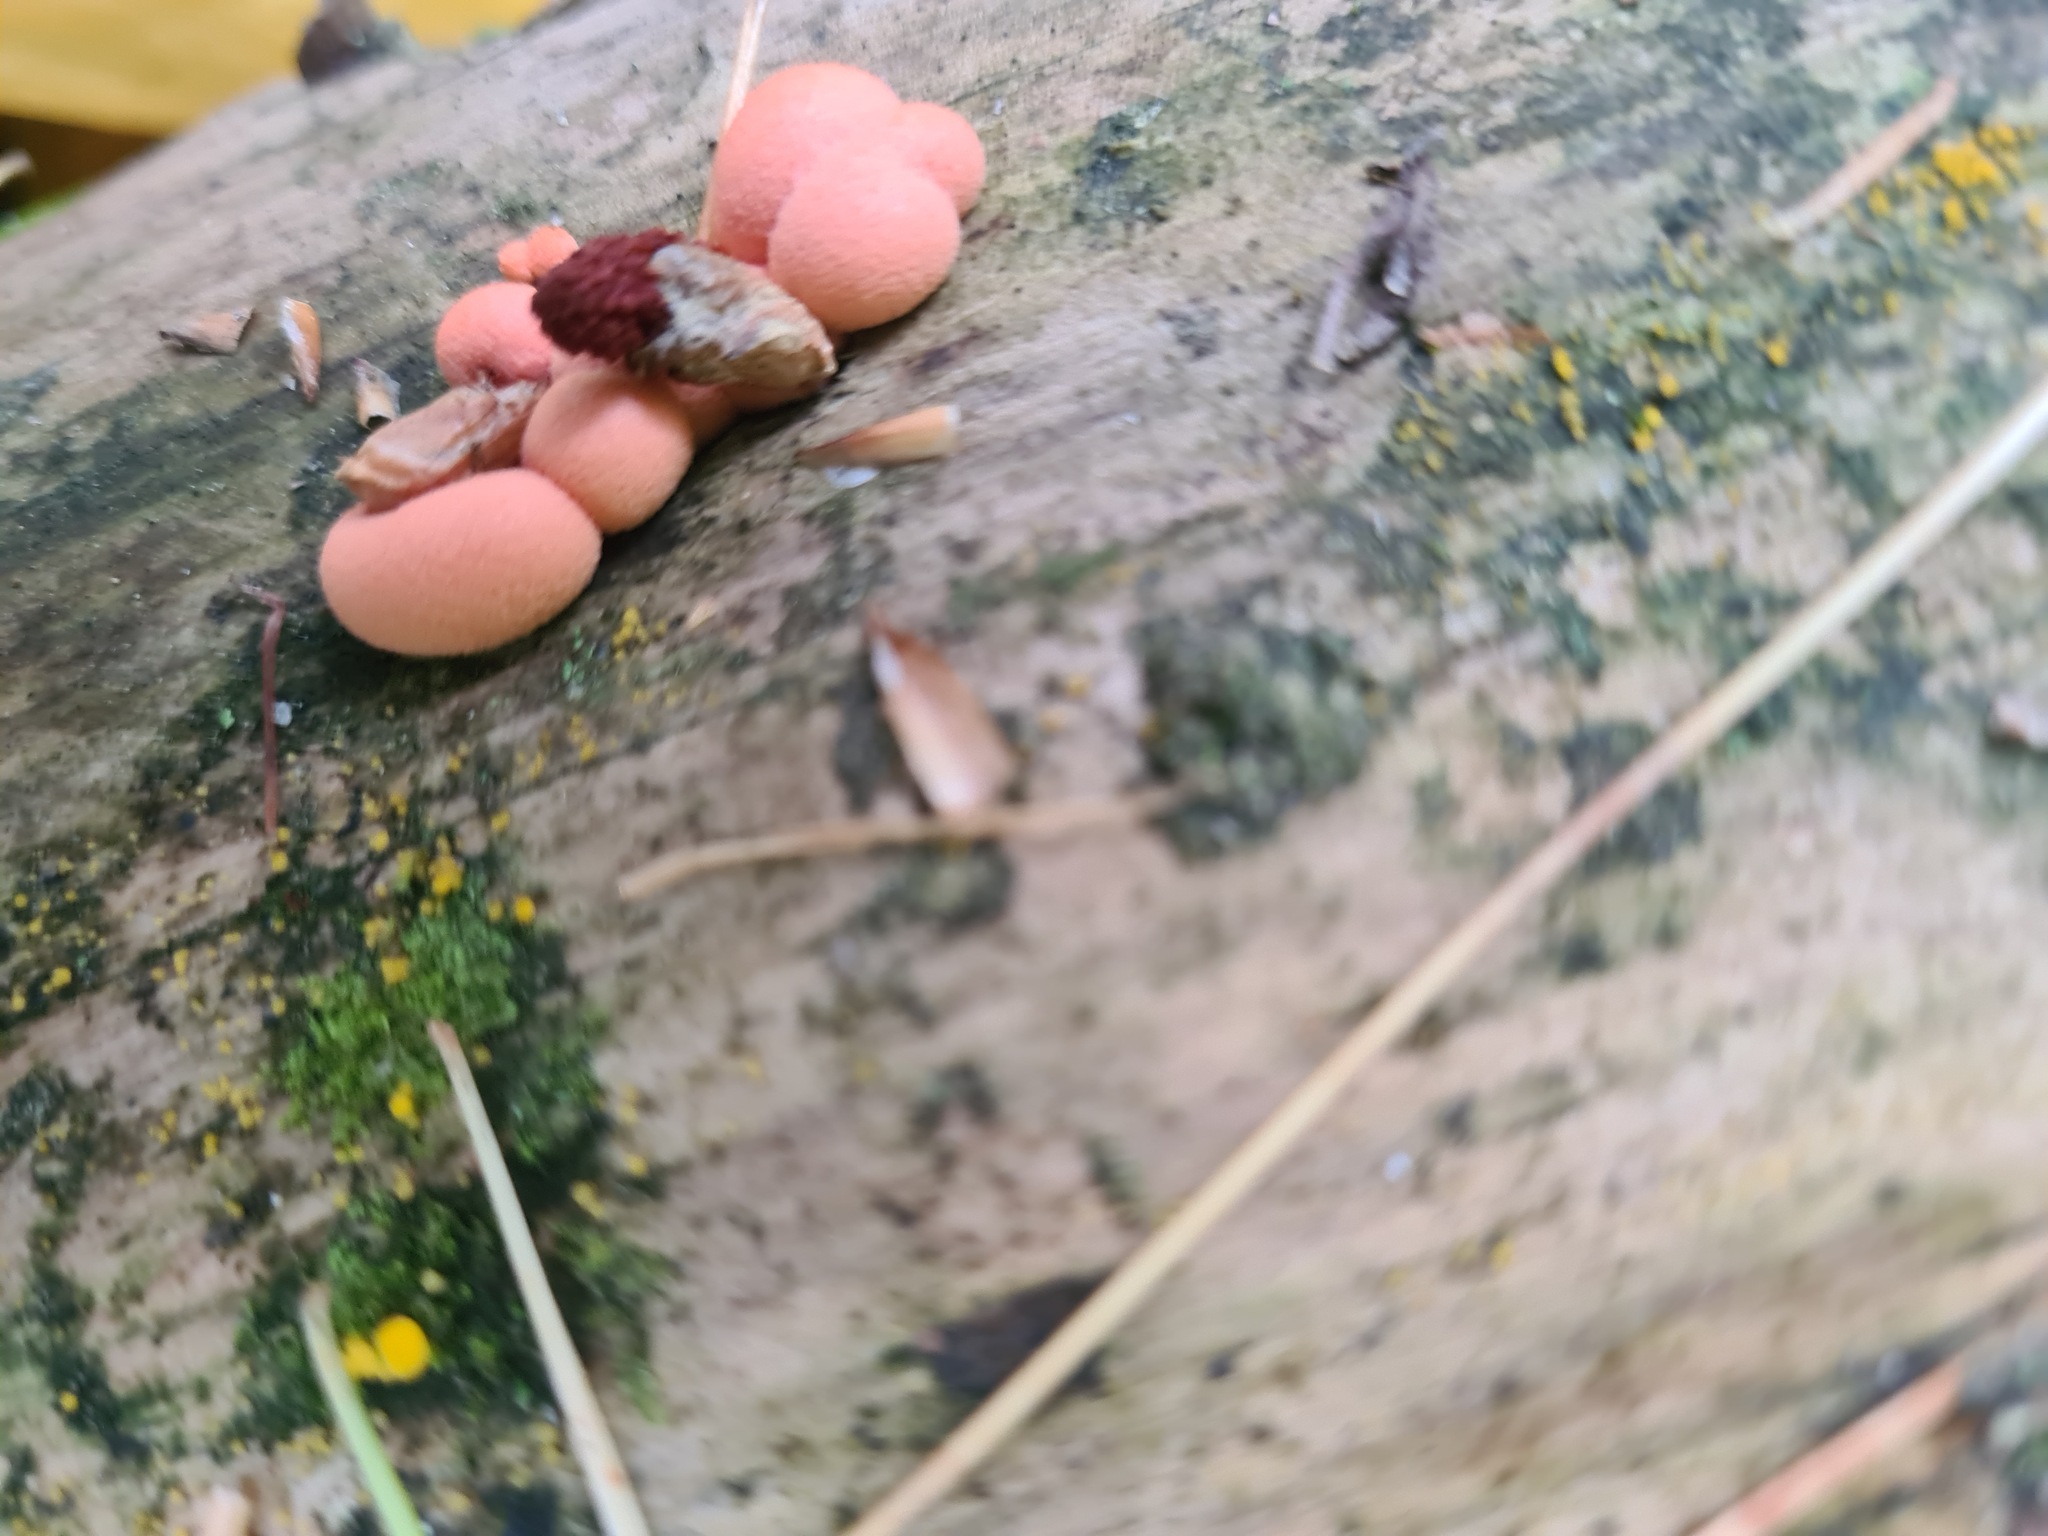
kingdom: Protozoa
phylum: Mycetozoa
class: Myxomycetes
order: Cribrariales
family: Tubiferaceae
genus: Lycogala
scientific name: Lycogala epidendrum
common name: Wolf's milk
